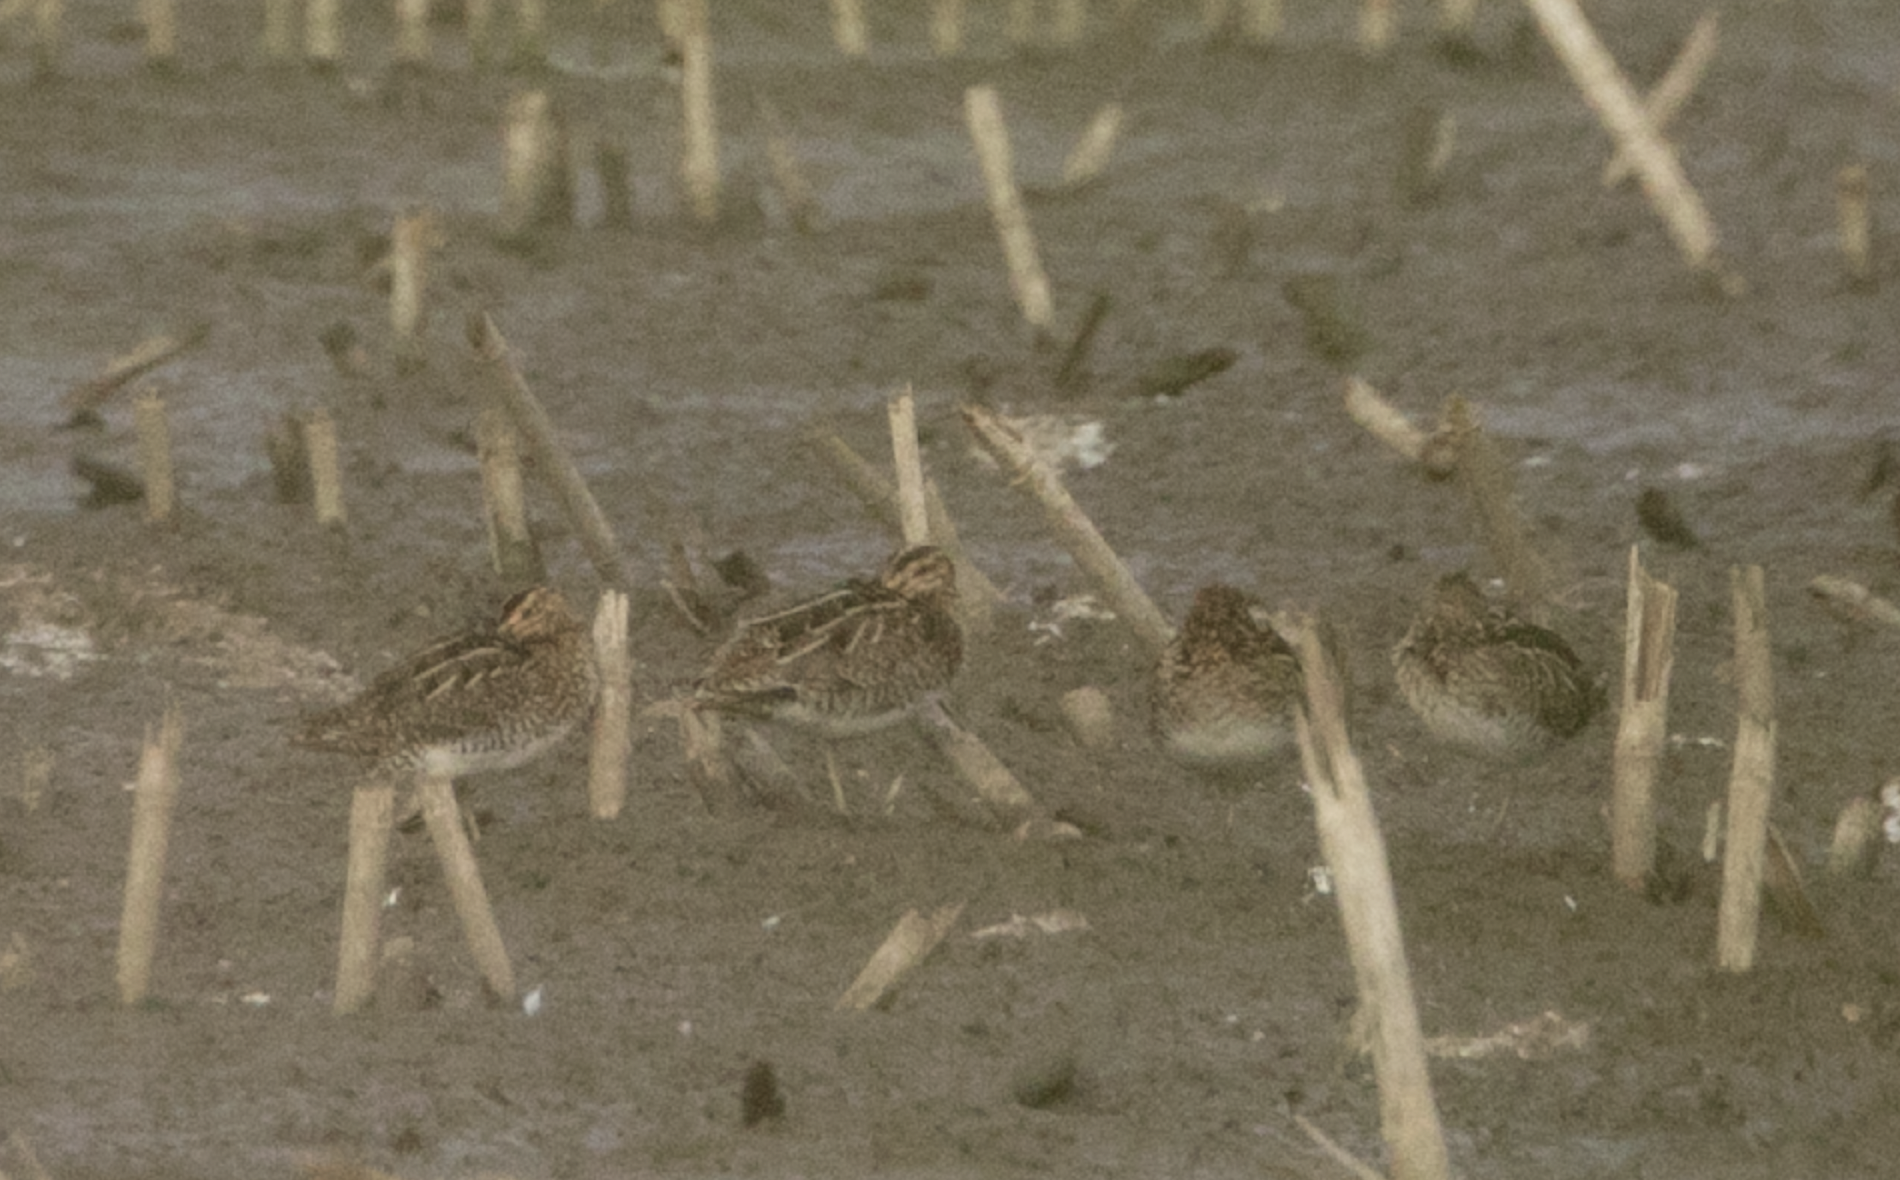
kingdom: Animalia
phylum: Chordata
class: Aves
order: Charadriiformes
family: Scolopacidae
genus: Gallinago
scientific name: Gallinago gallinago
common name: Common snipe
